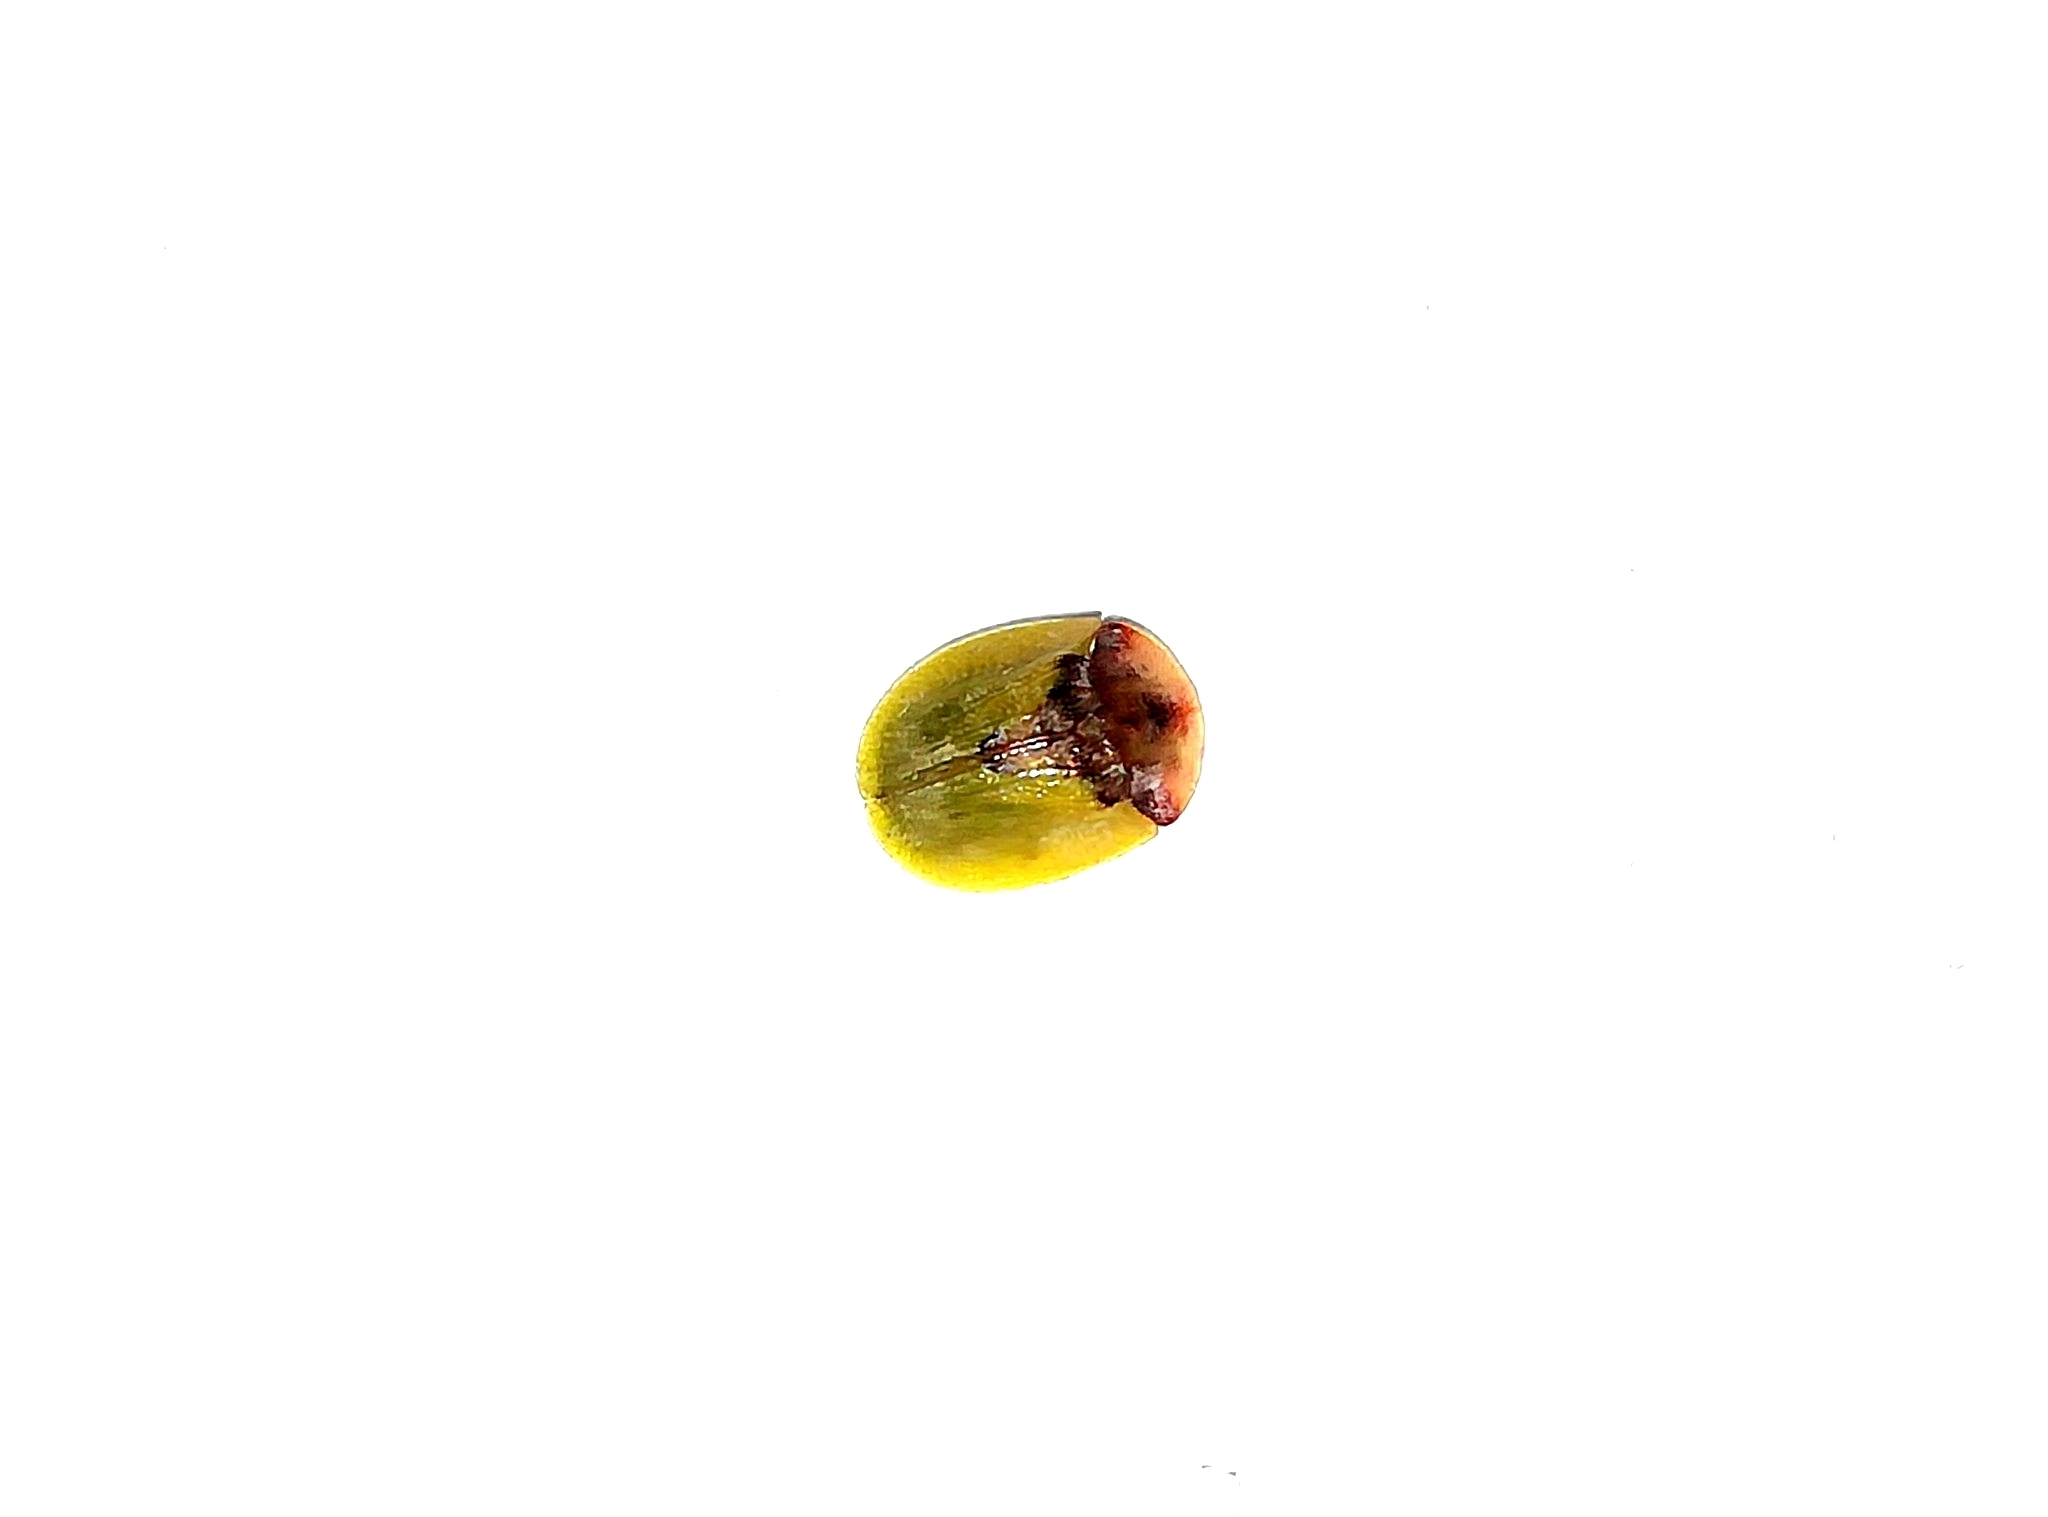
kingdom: Animalia
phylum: Arthropoda
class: Insecta
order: Coleoptera
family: Chrysomelidae
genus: Cassida
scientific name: Cassida panzeri
